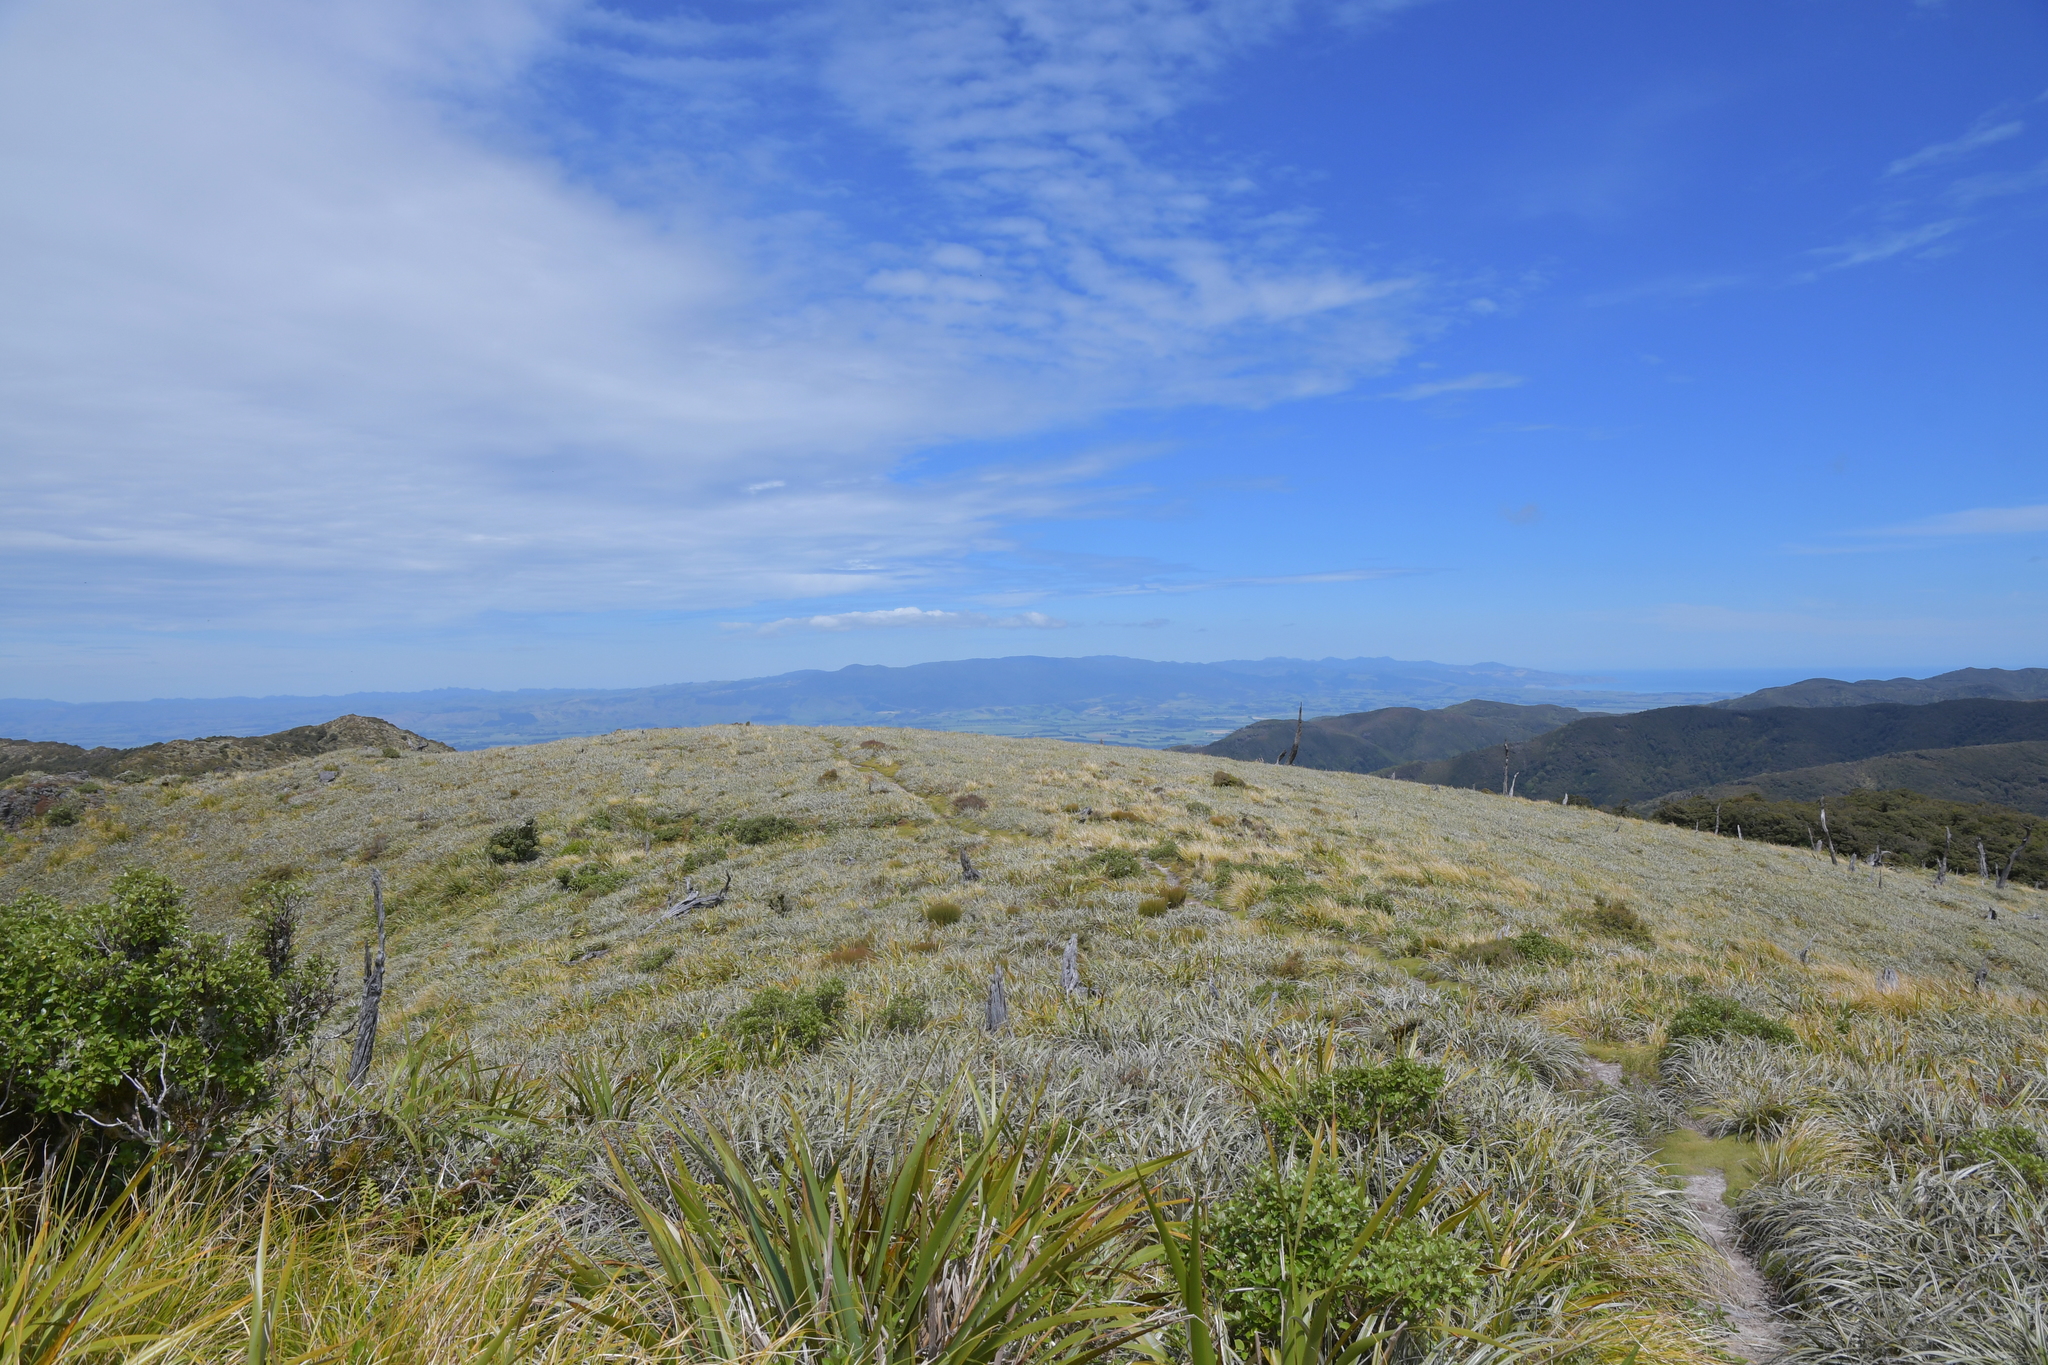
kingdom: Plantae
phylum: Tracheophyta
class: Liliopsida
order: Asparagales
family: Asteliaceae
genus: Astelia
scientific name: Astelia nervosa
